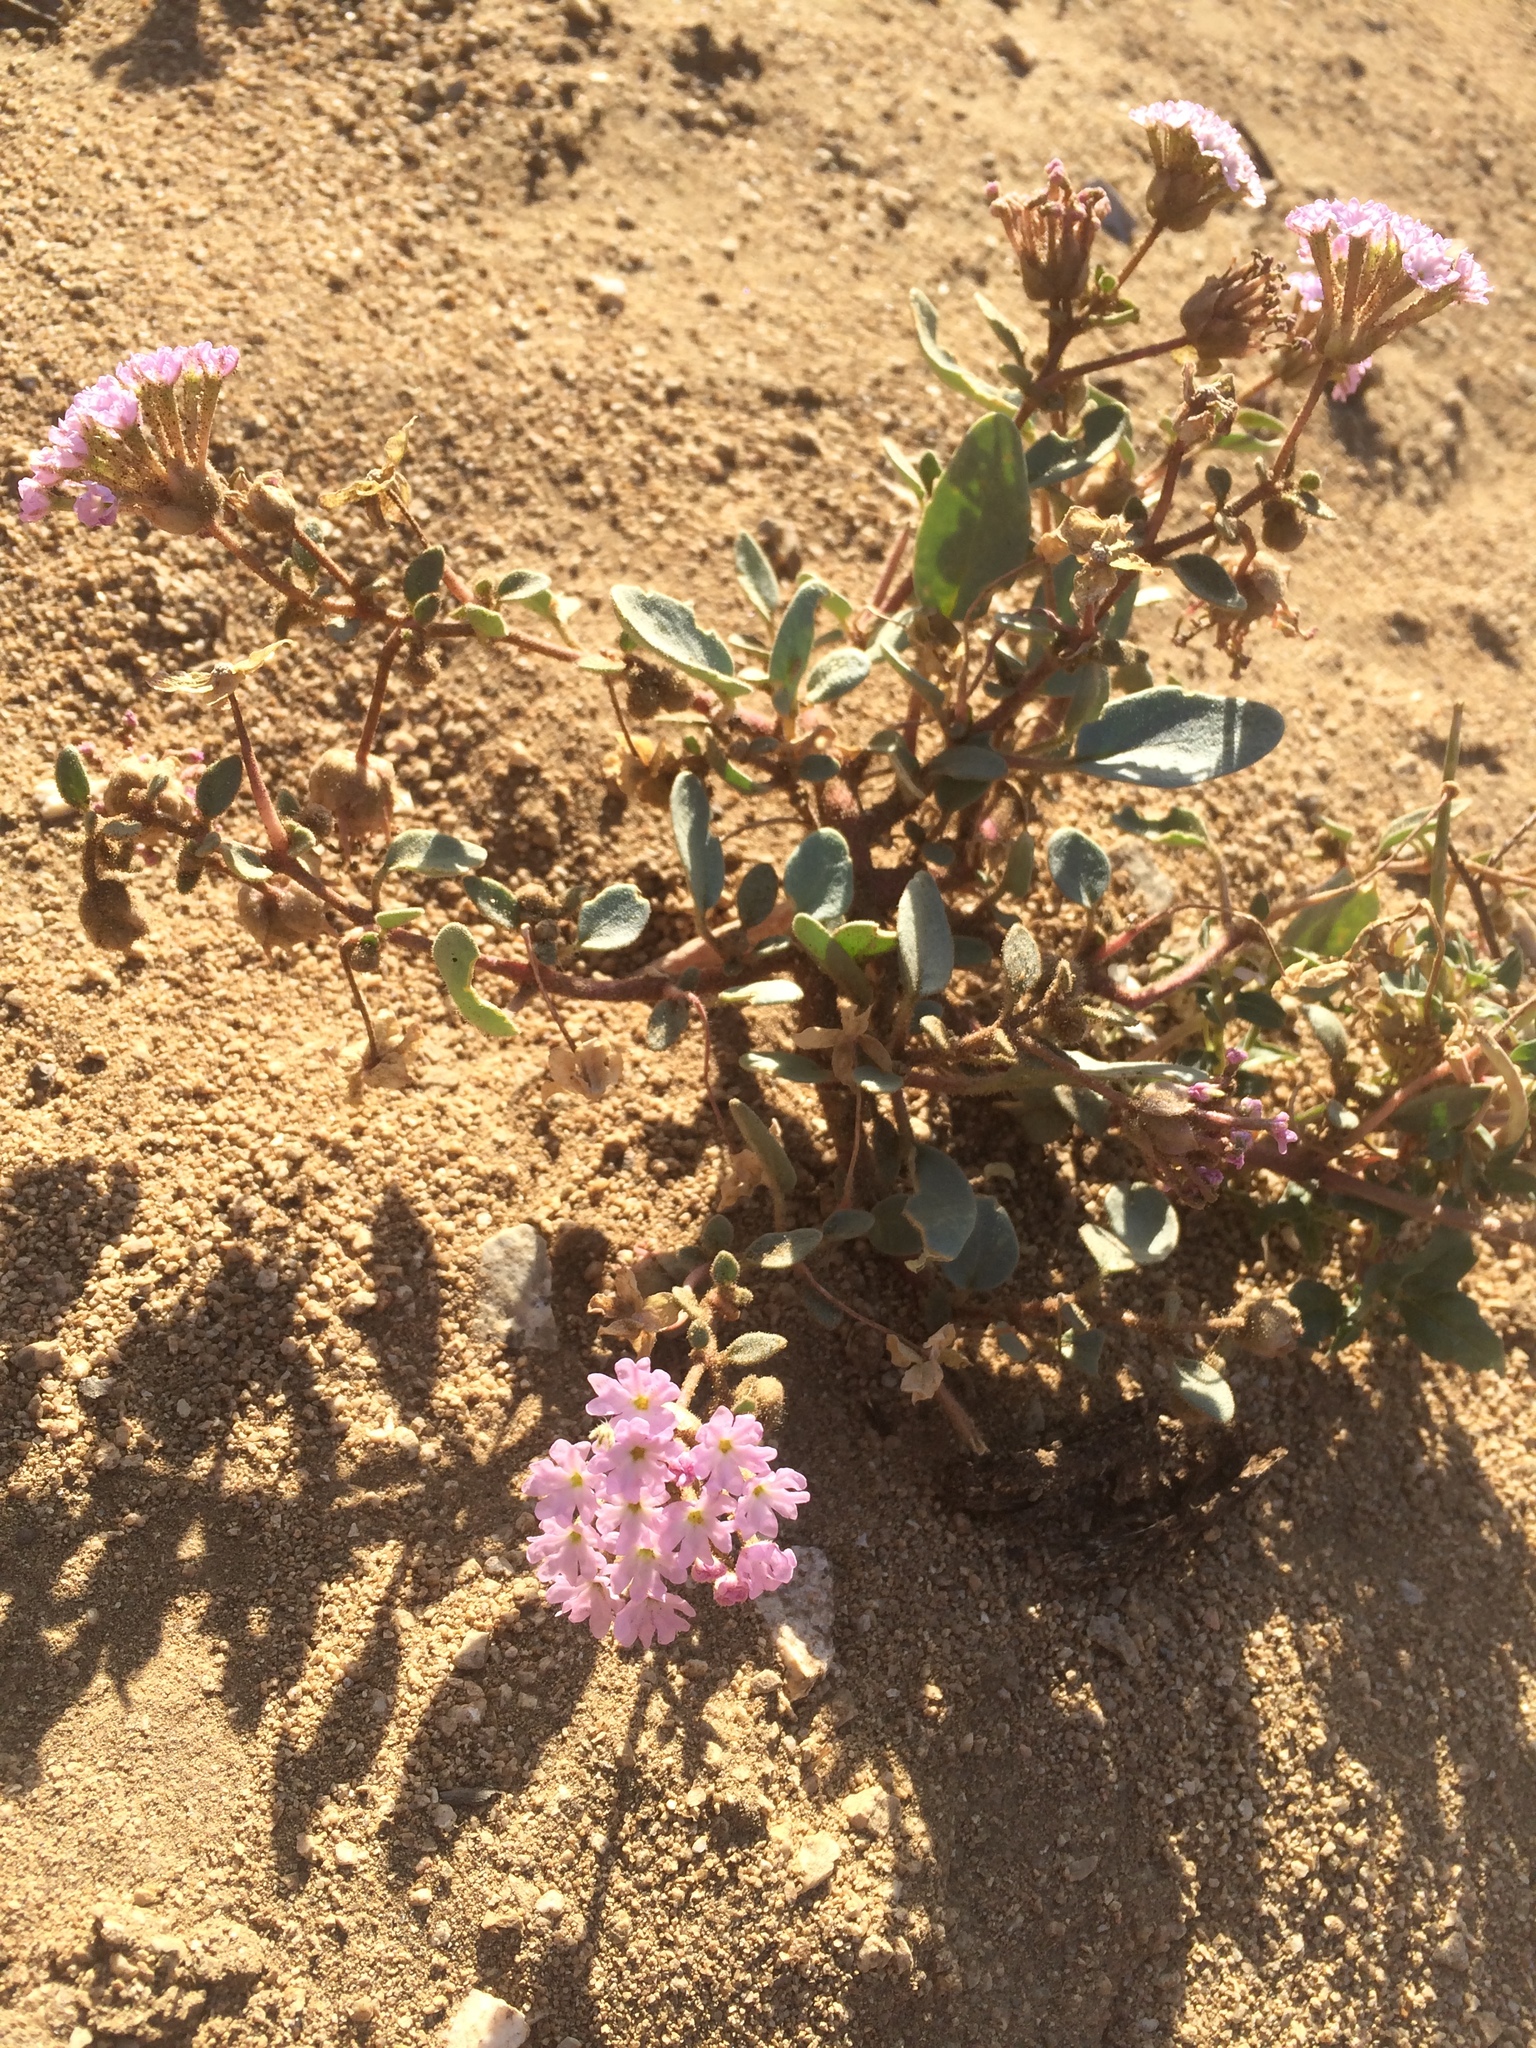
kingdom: Plantae
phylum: Tracheophyta
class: Magnoliopsida
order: Caryophyllales
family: Nyctaginaceae
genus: Abronia
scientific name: Abronia pogonantha
